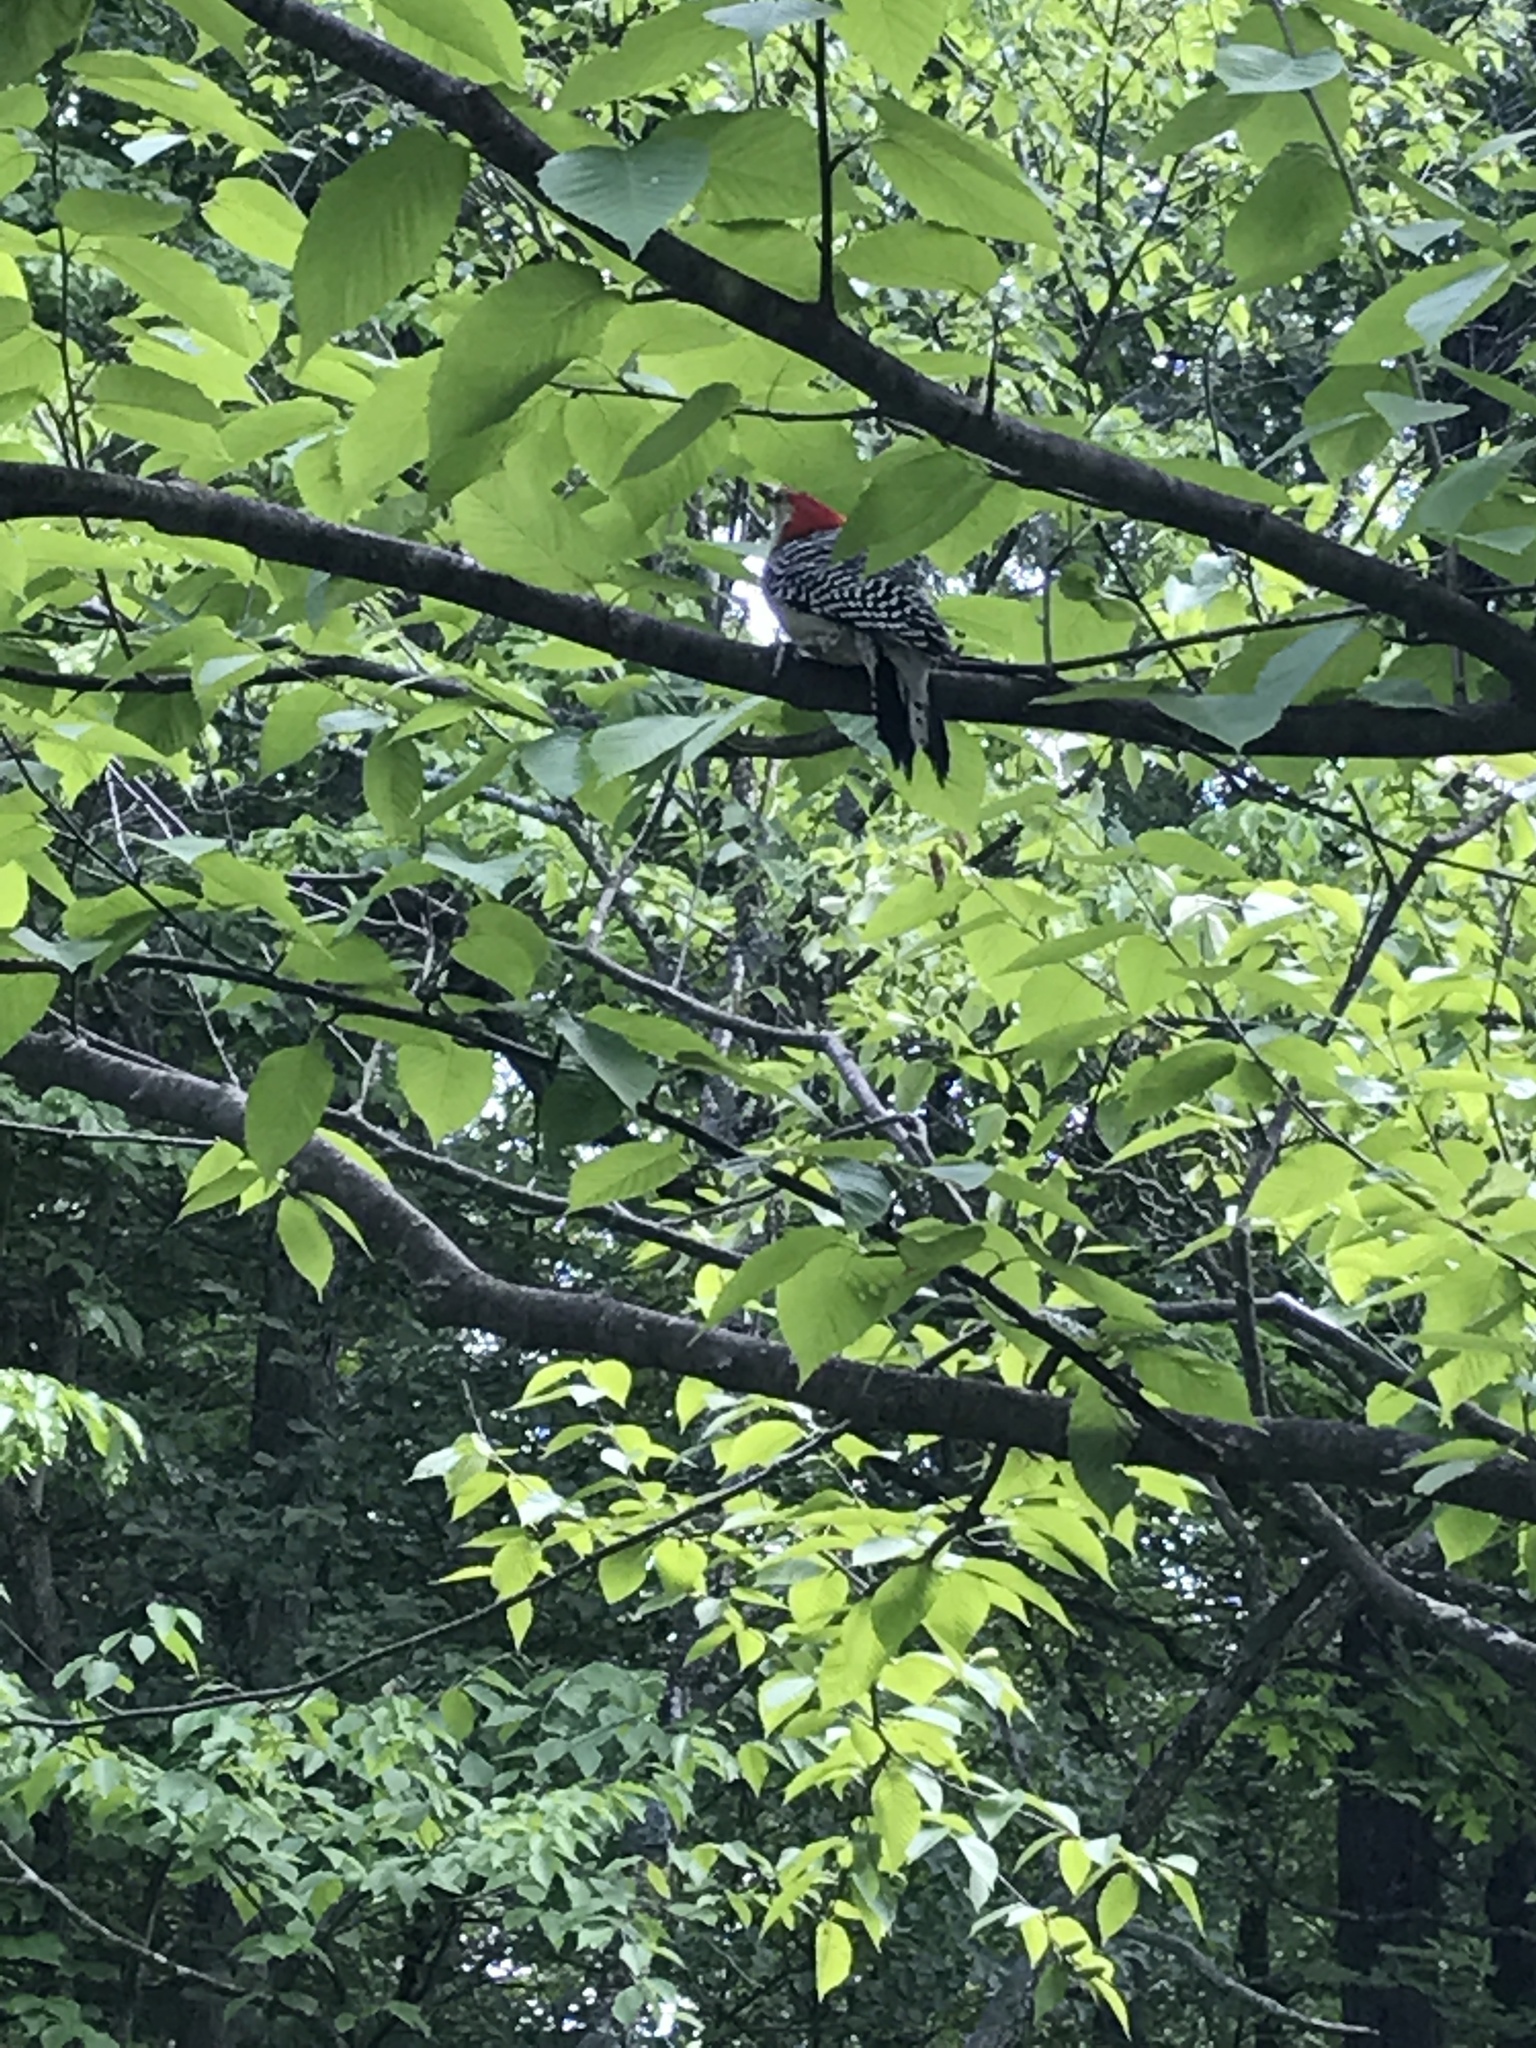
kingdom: Animalia
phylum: Chordata
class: Aves
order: Piciformes
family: Picidae
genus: Melanerpes
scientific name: Melanerpes carolinus
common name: Red-bellied woodpecker
